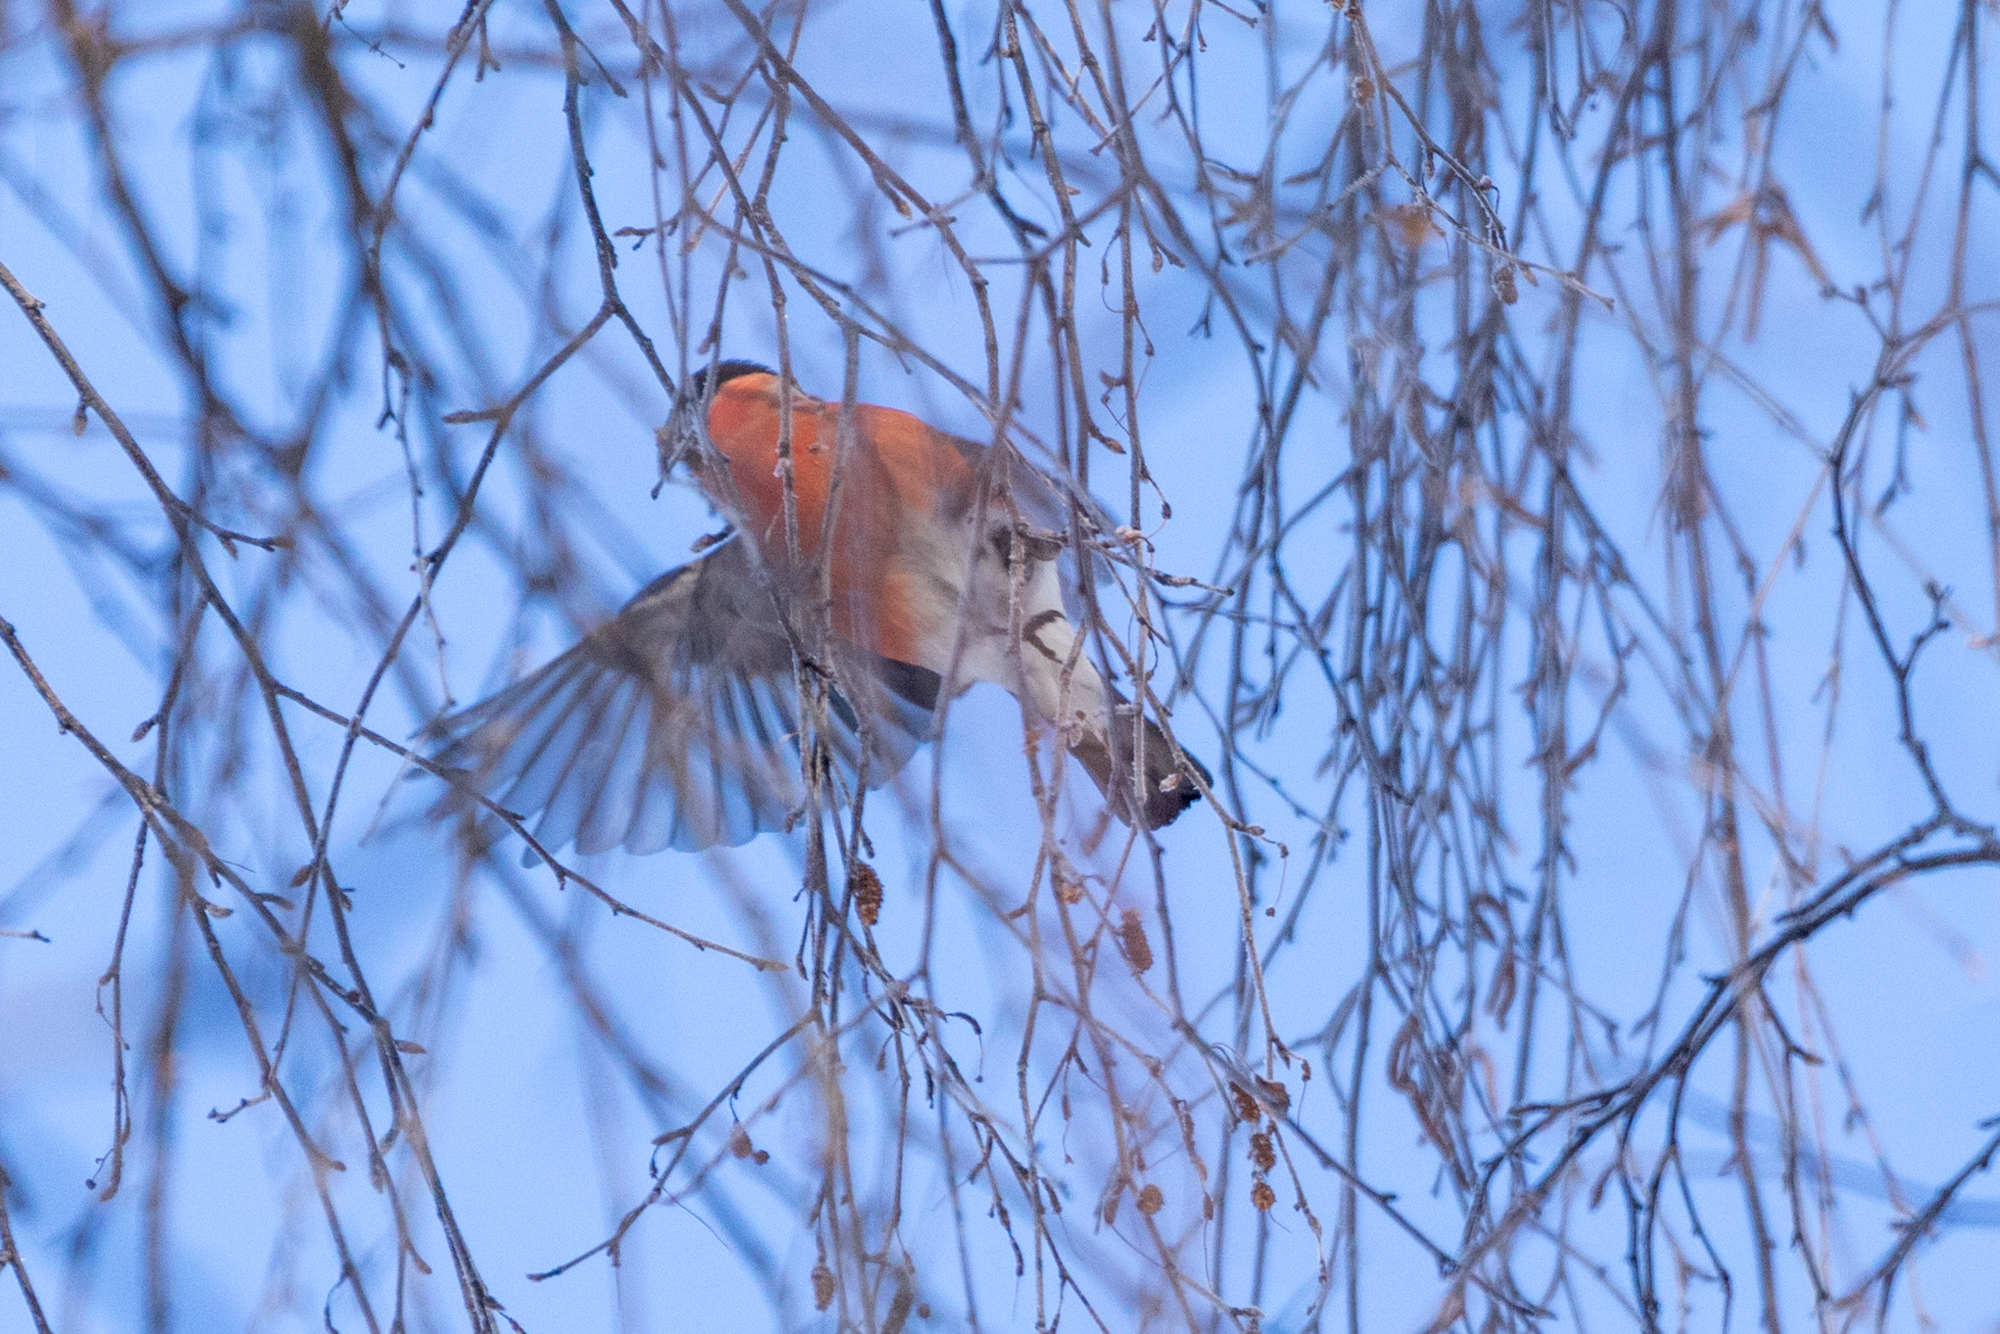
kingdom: Animalia
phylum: Chordata
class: Aves
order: Passeriformes
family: Fringillidae
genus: Pyrrhula
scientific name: Pyrrhula pyrrhula
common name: Eurasian bullfinch
